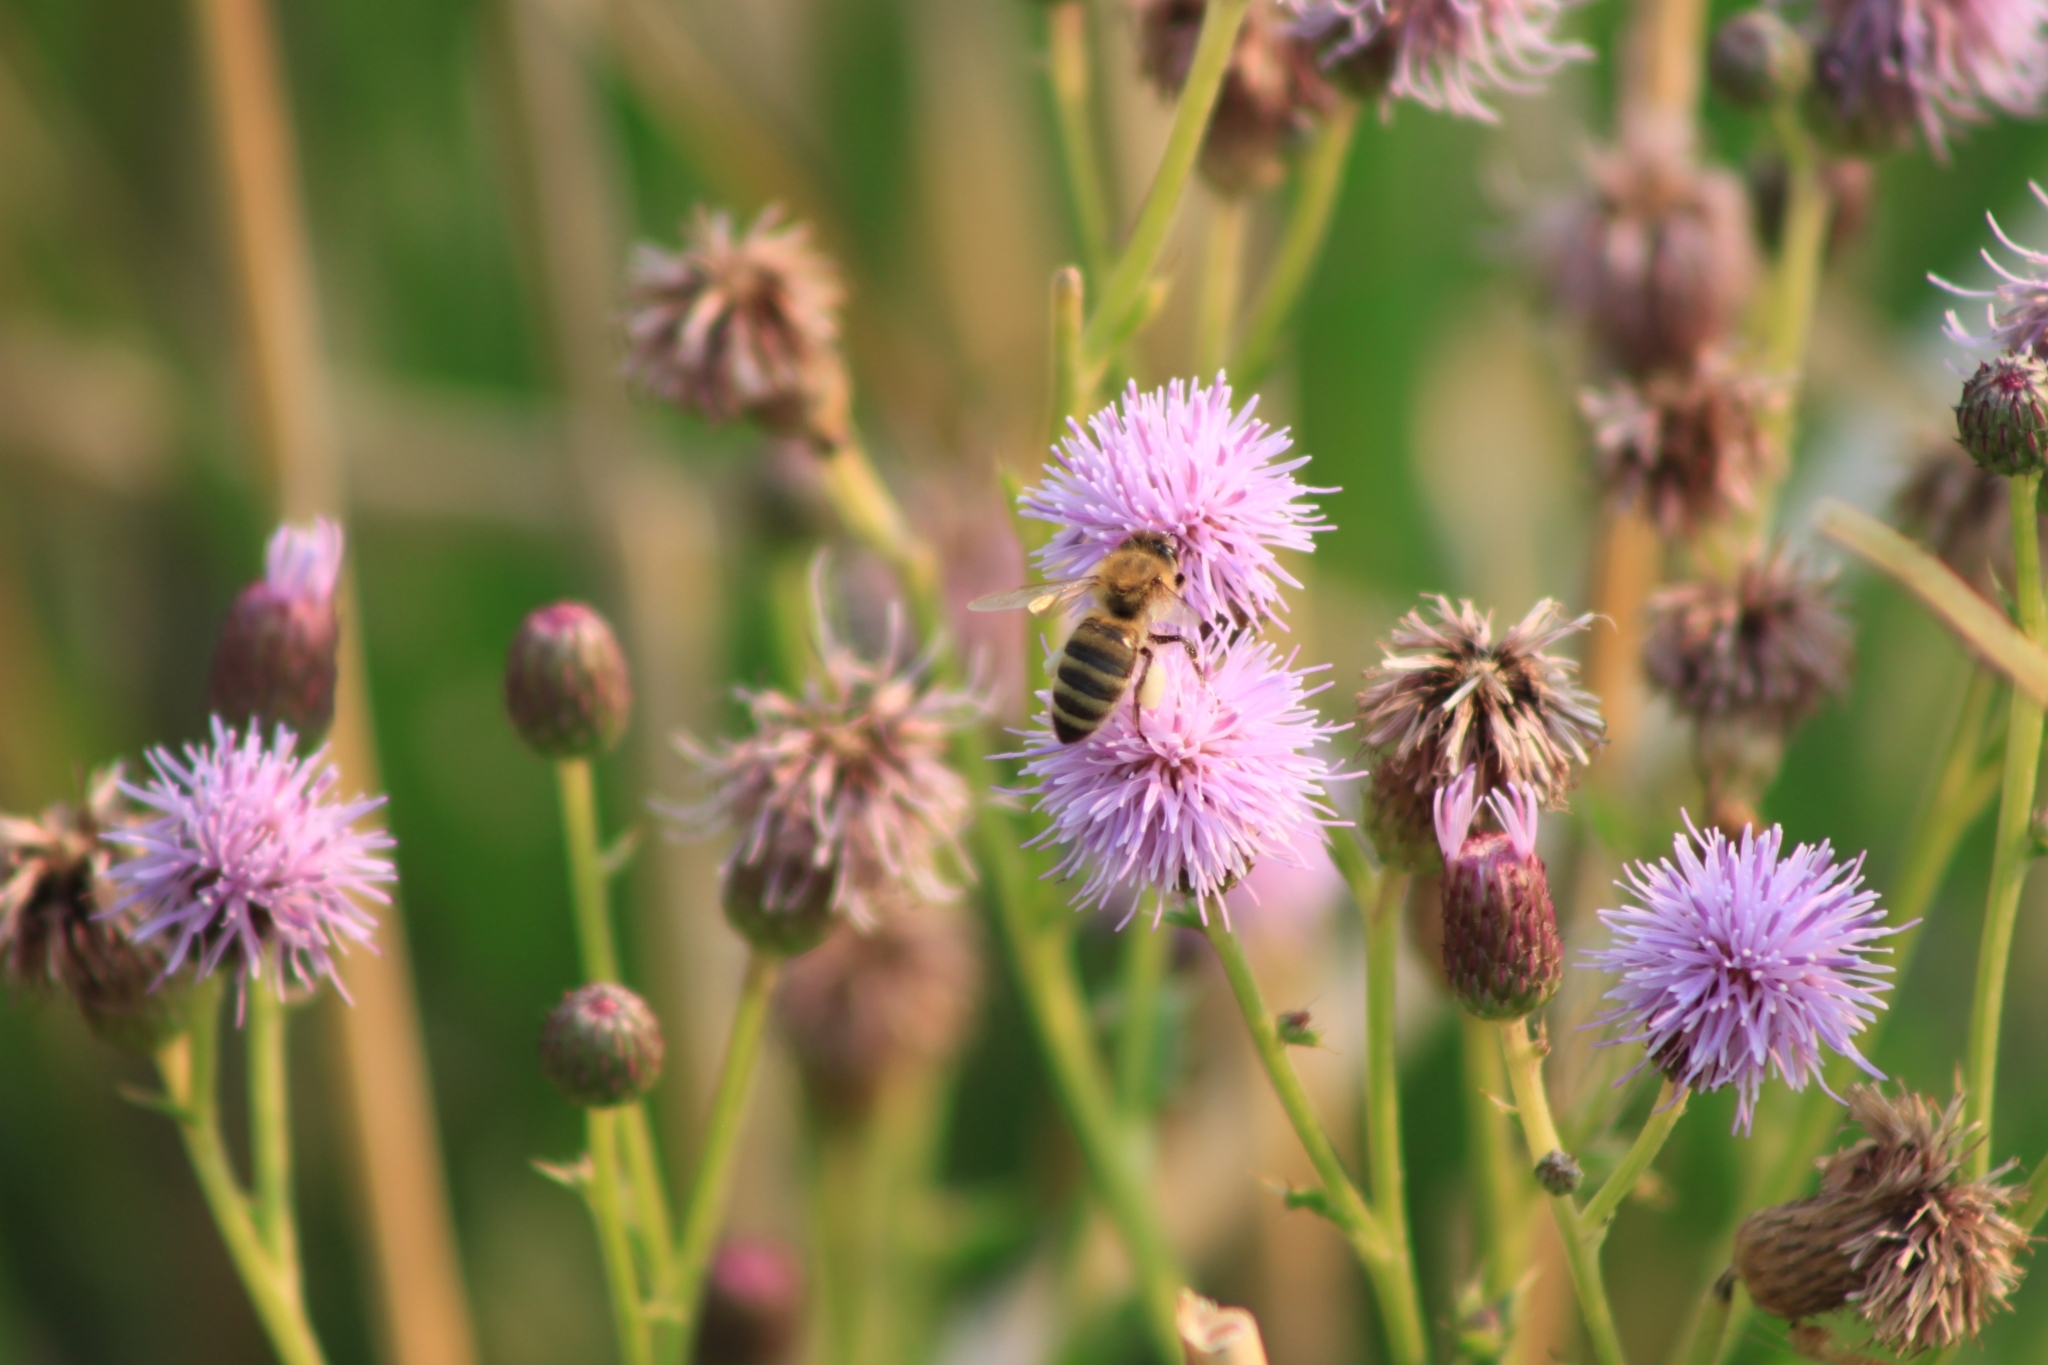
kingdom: Animalia
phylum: Arthropoda
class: Insecta
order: Hymenoptera
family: Apidae
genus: Apis
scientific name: Apis mellifera
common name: Honey bee
